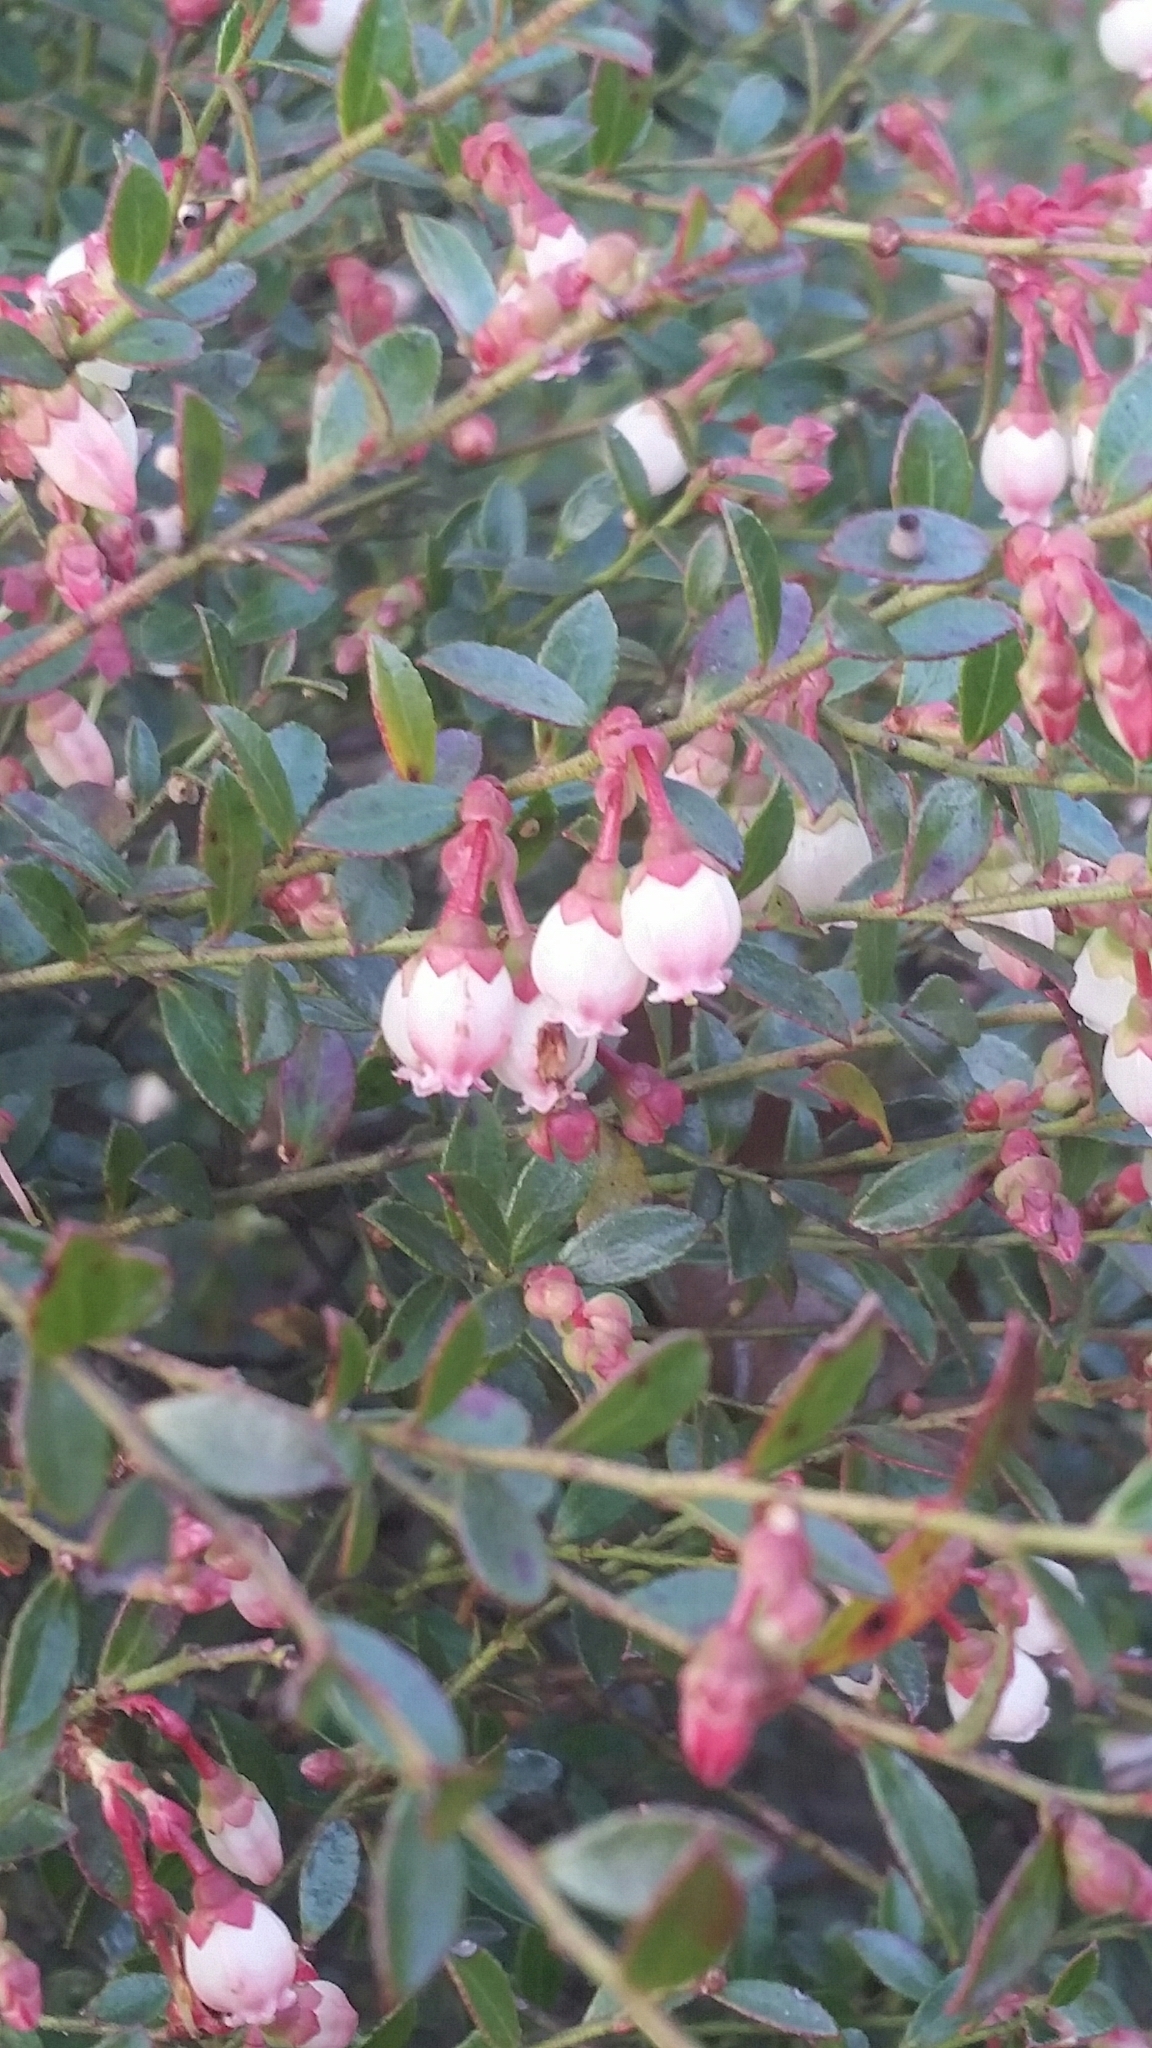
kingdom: Plantae
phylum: Tracheophyta
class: Magnoliopsida
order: Ericales
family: Ericaceae
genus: Vaccinium
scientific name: Vaccinium myrsinites
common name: Evergreen blueberry
